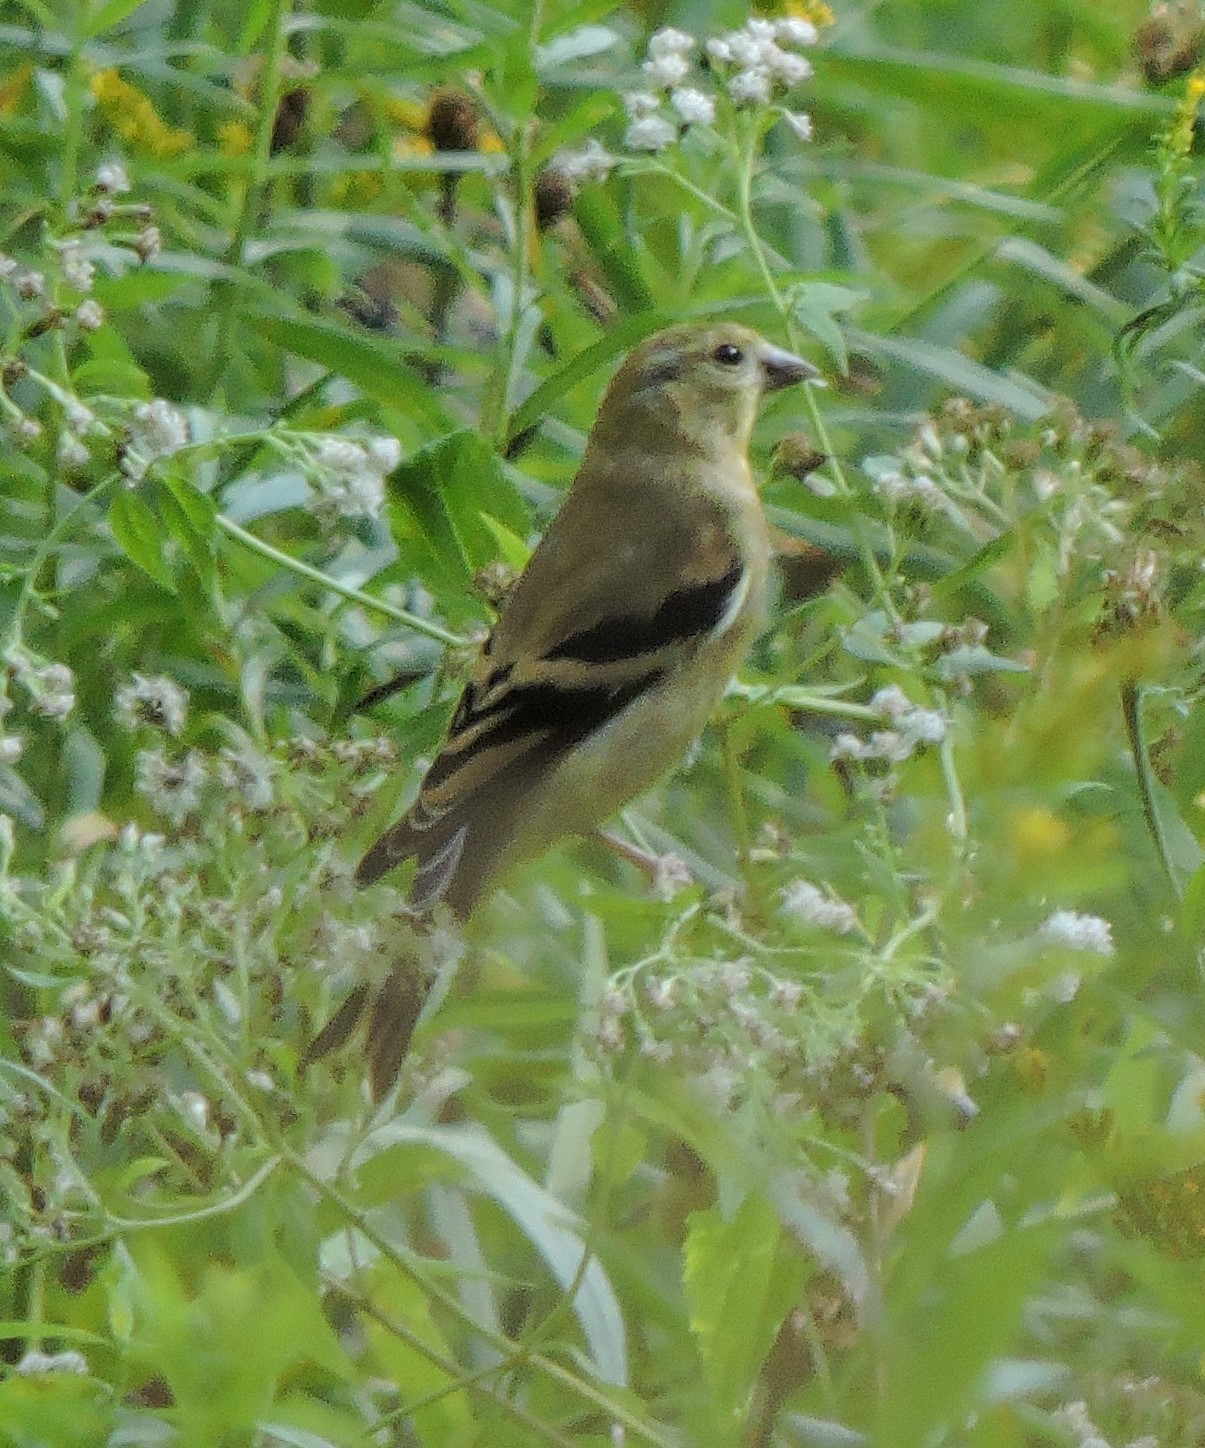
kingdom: Animalia
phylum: Chordata
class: Aves
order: Passeriformes
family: Fringillidae
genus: Spinus
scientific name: Spinus tristis
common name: American goldfinch
